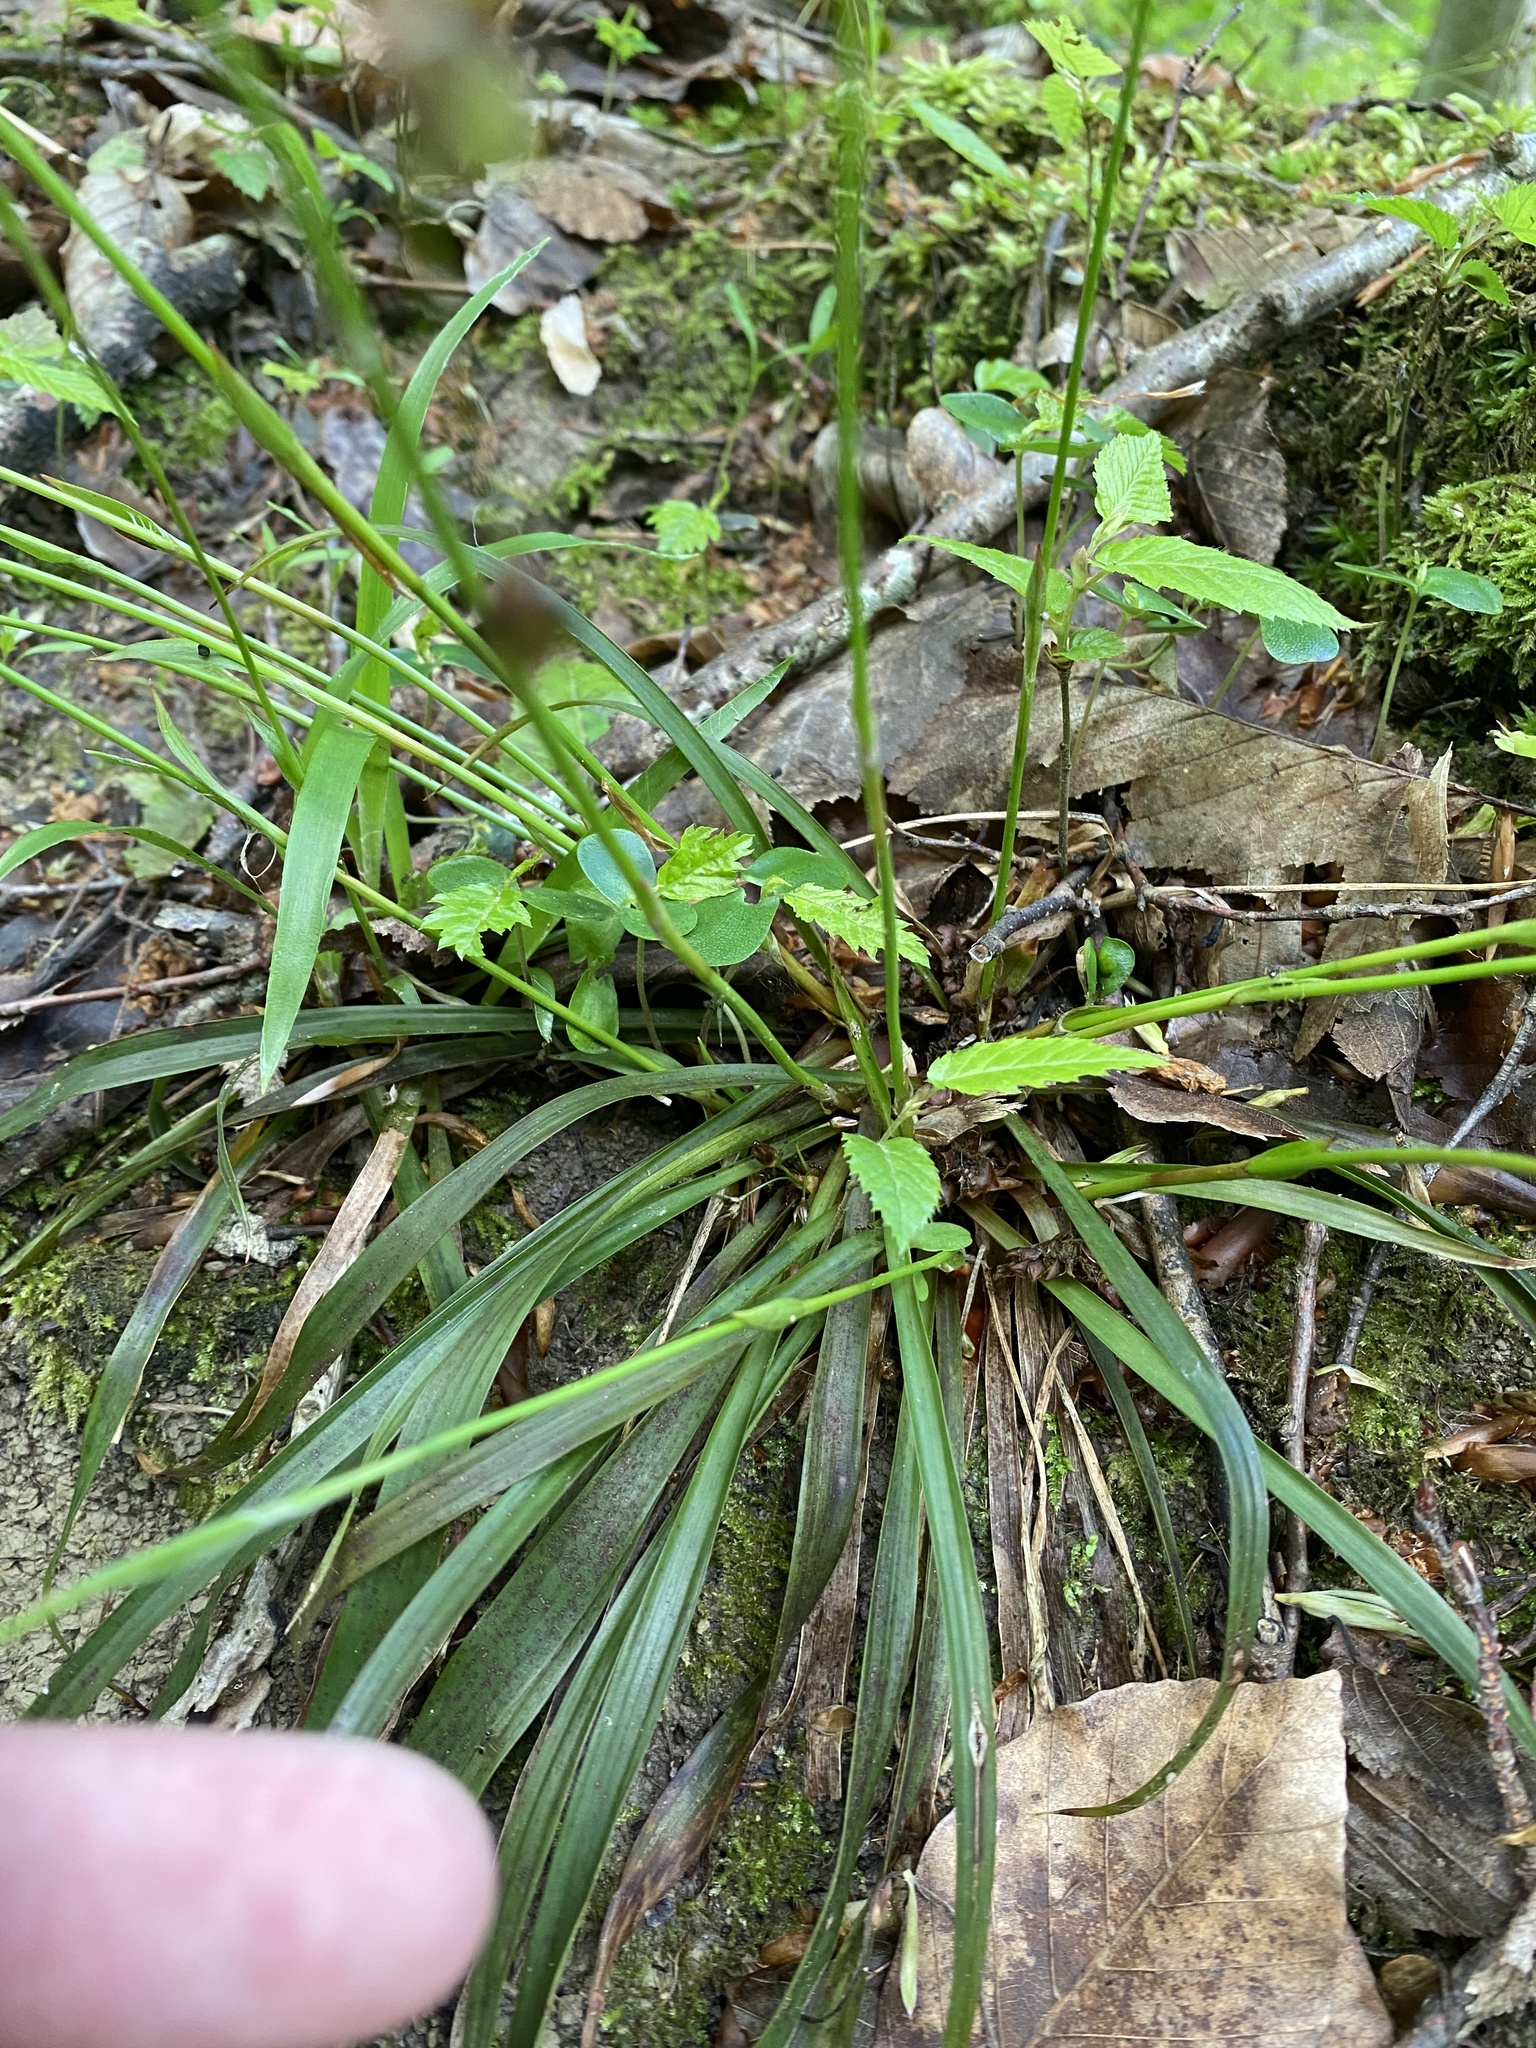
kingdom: Plantae
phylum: Tracheophyta
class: Liliopsida
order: Poales
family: Juncaceae
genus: Luzula
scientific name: Luzula forsteri
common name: Southern wood-rush
